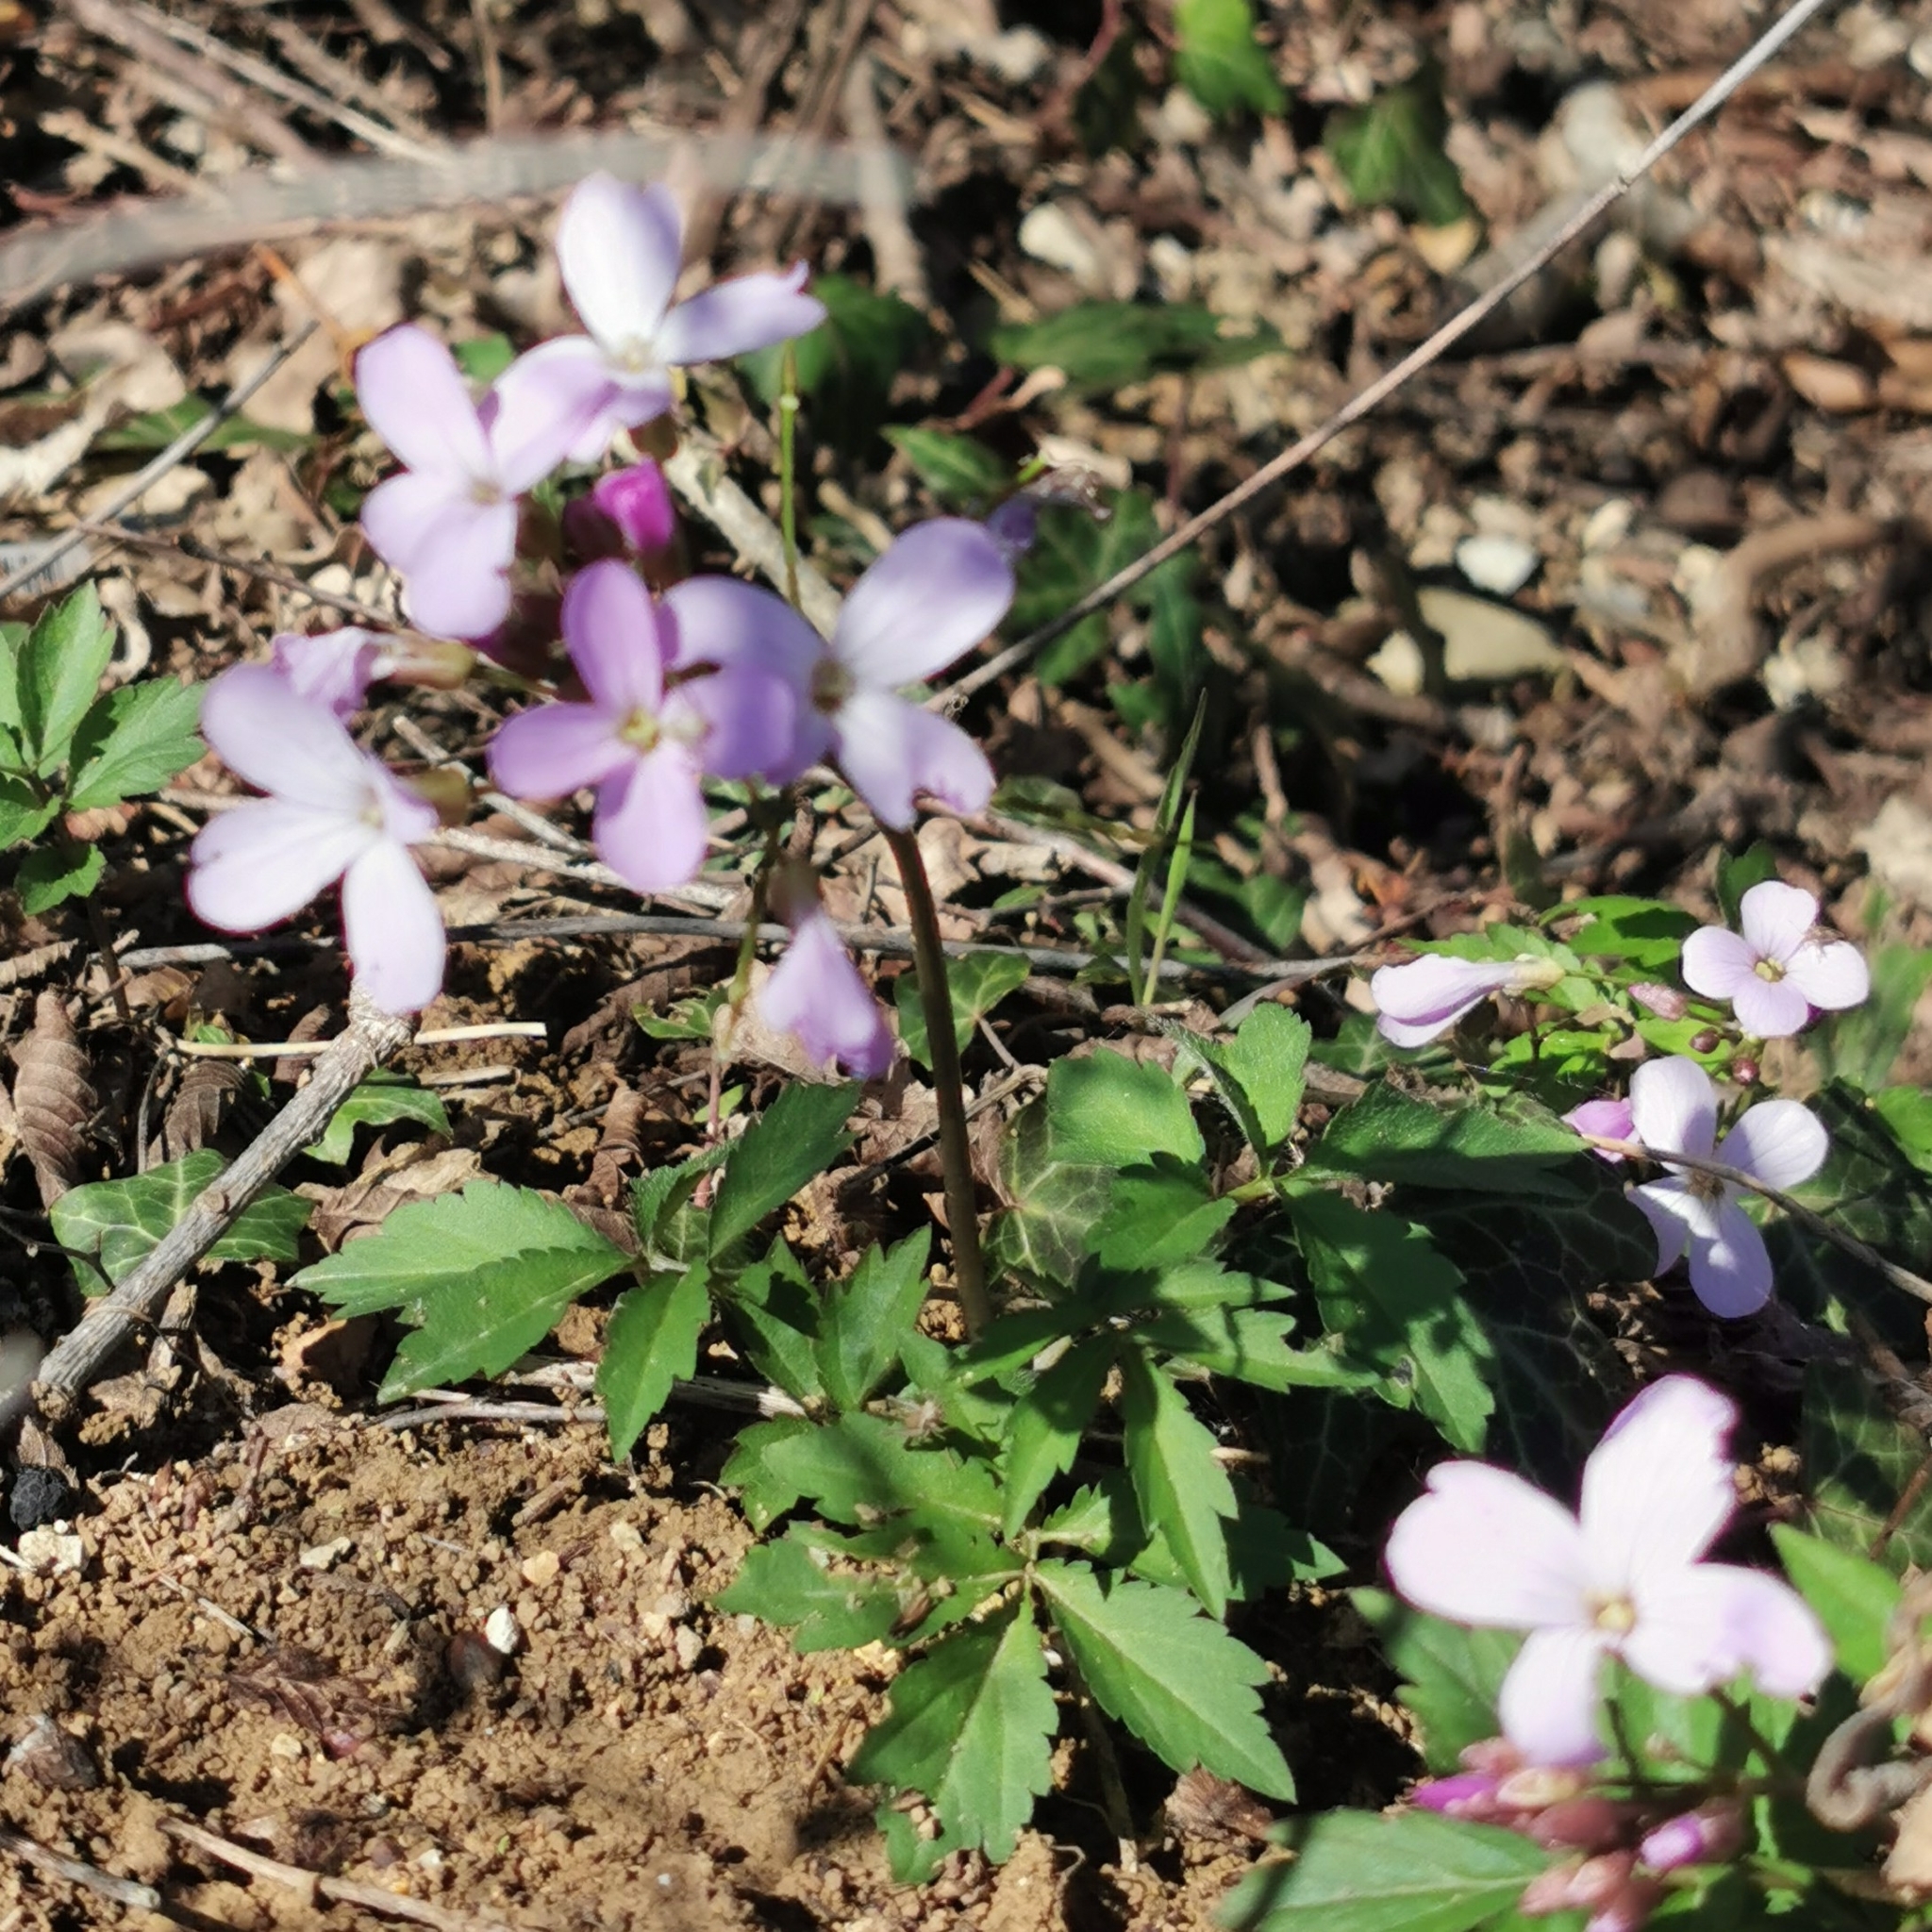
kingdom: Plantae
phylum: Tracheophyta
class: Magnoliopsida
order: Brassicales
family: Brassicaceae
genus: Cardamine
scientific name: Cardamine quinquefolia
